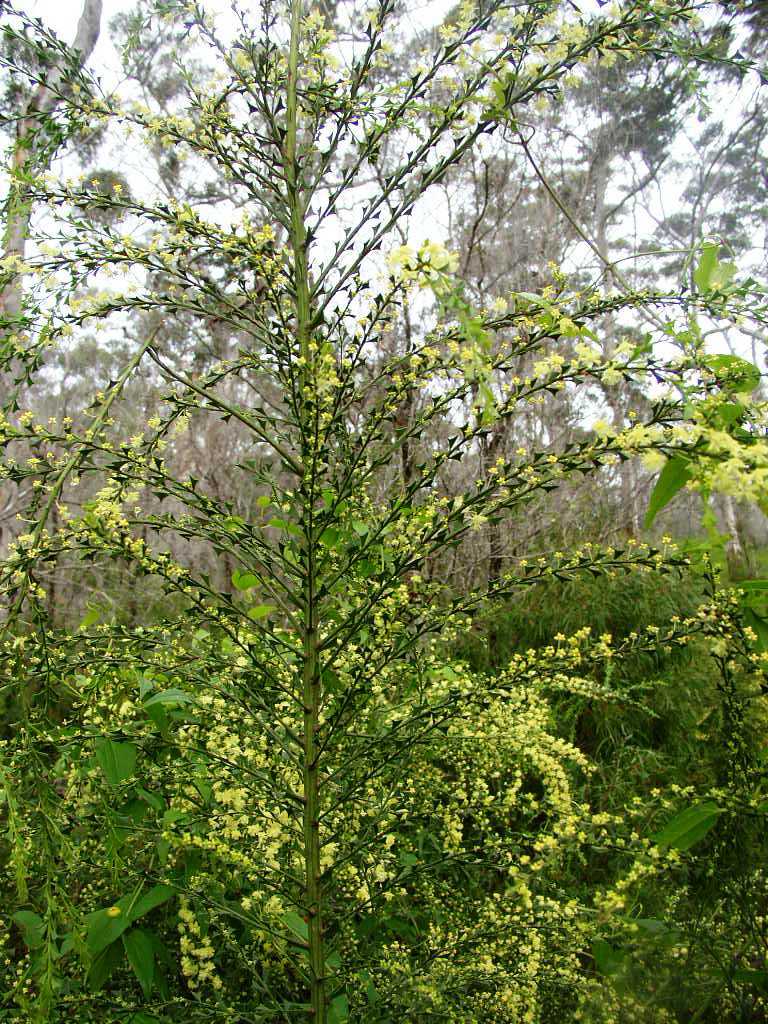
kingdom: Plantae
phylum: Tracheophyta
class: Magnoliopsida
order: Fabales
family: Fabaceae
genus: Acacia
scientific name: Acacia divergens
